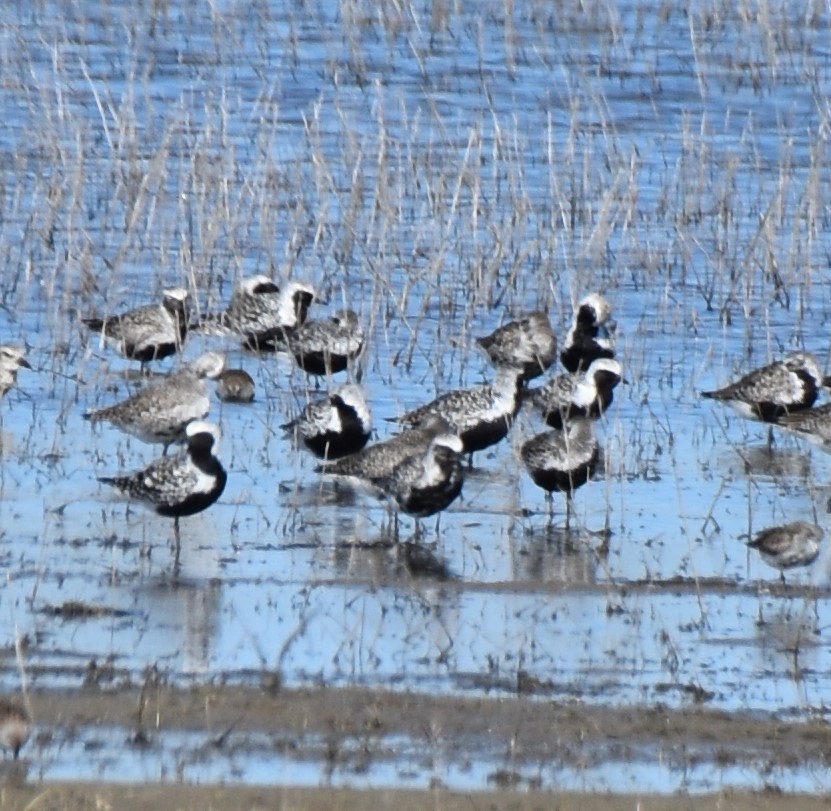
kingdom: Animalia
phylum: Chordata
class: Aves
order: Charadriiformes
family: Charadriidae
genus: Pluvialis
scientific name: Pluvialis squatarola
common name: Grey plover
